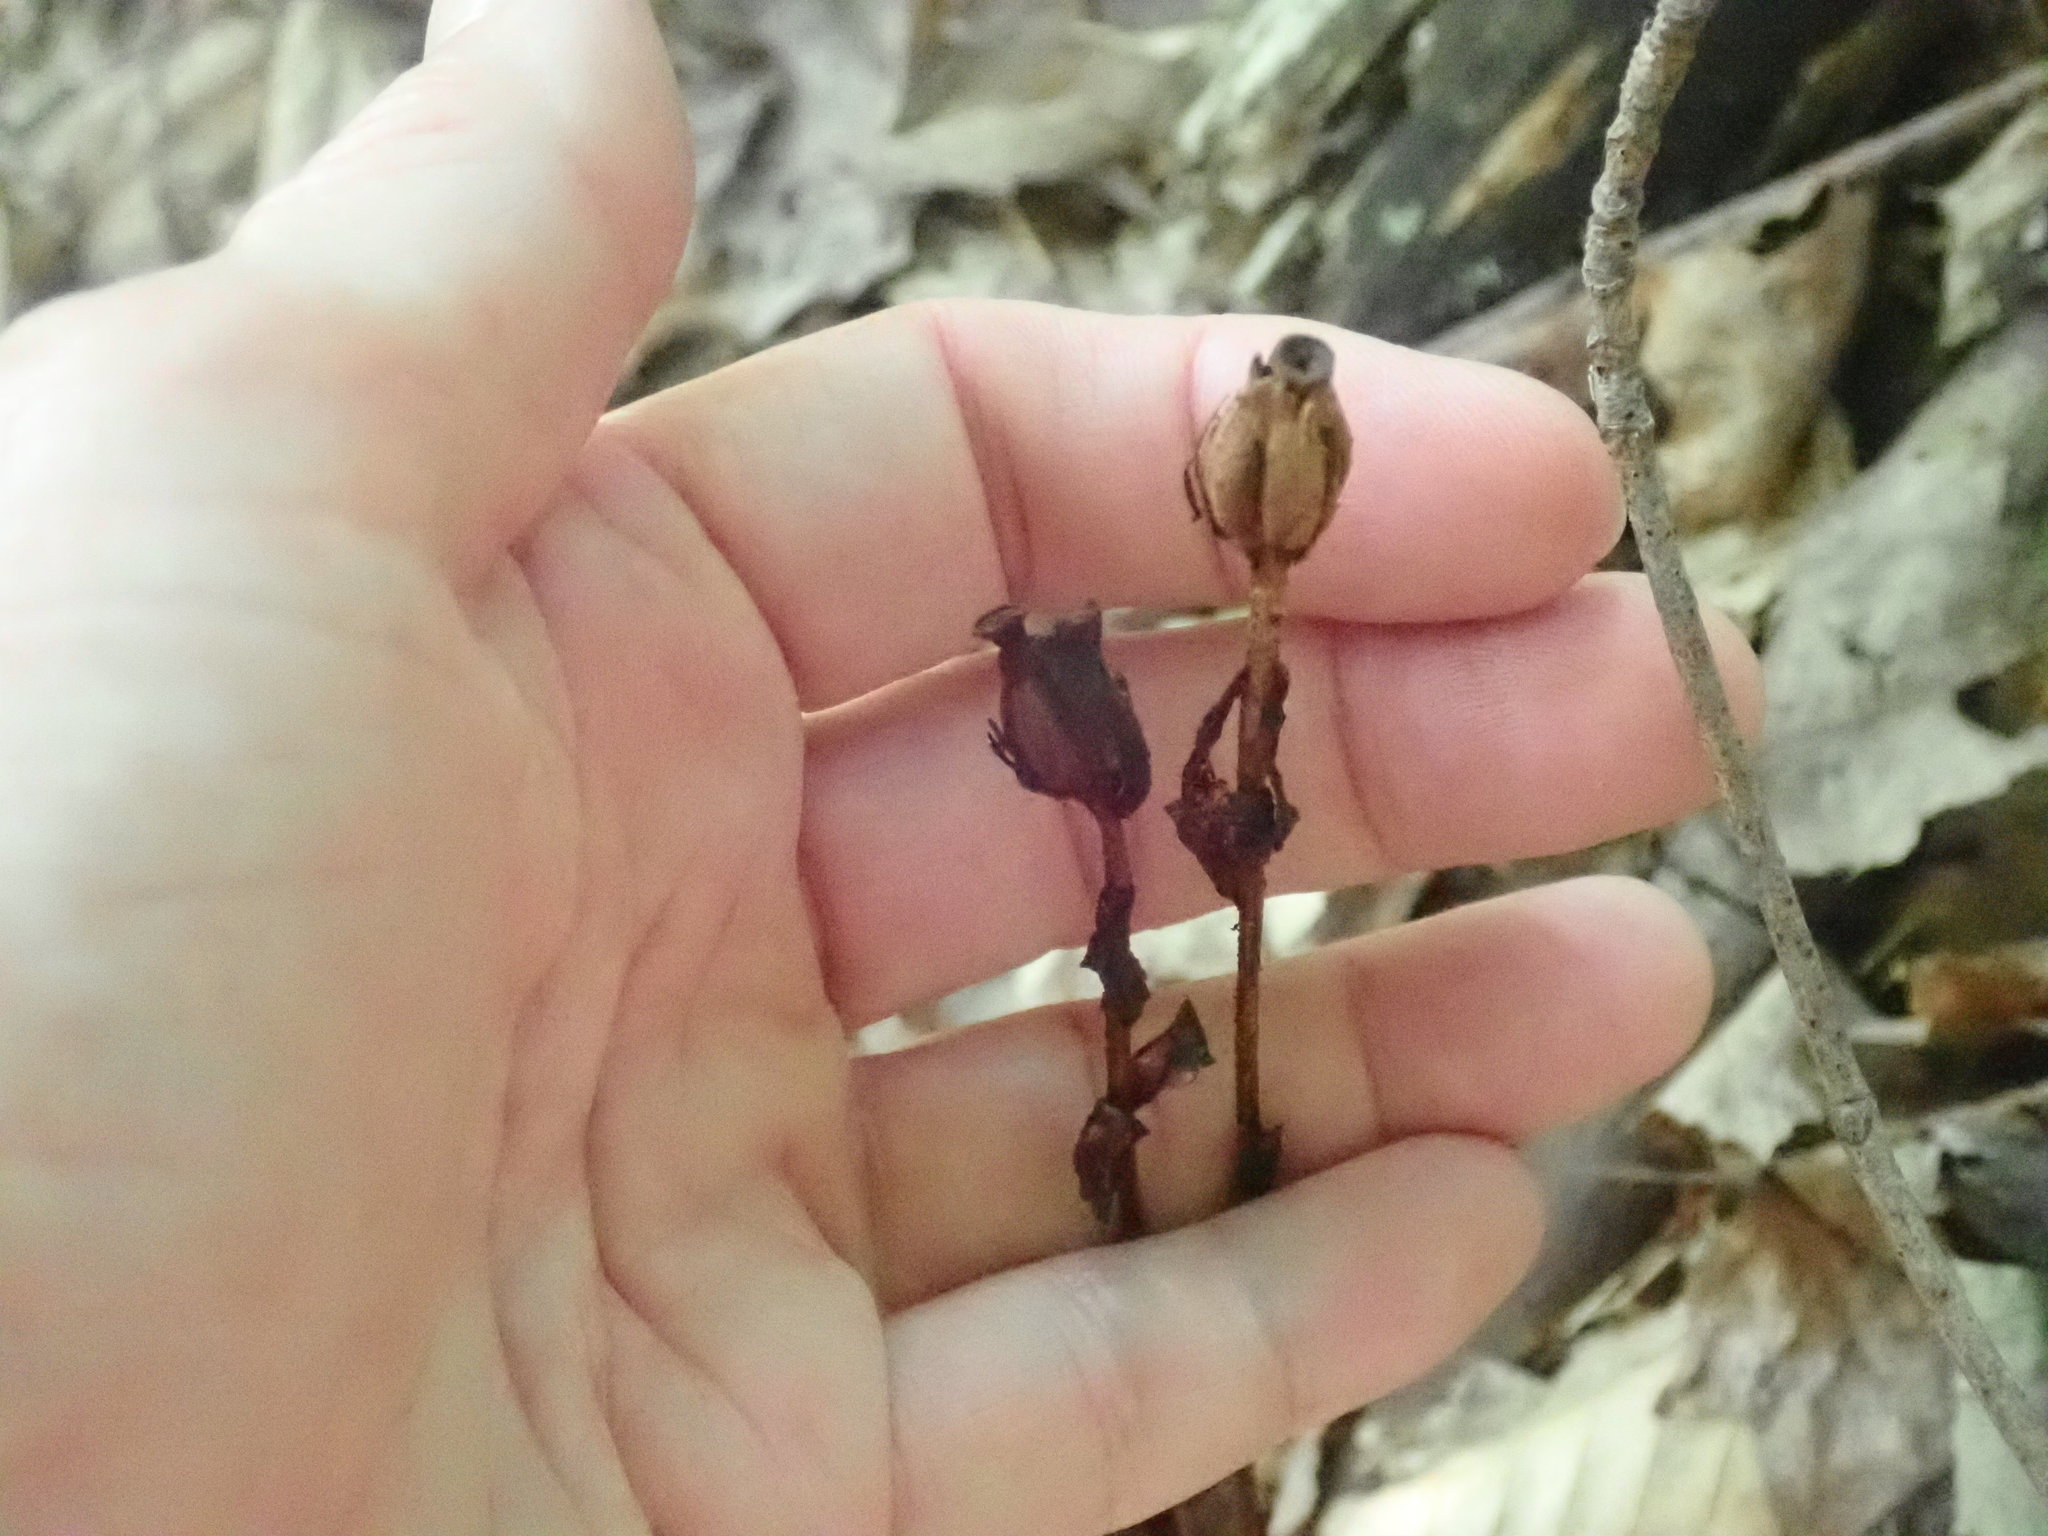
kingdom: Plantae
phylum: Tracheophyta
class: Magnoliopsida
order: Ericales
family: Ericaceae
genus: Monotropa
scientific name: Monotropa uniflora
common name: Convulsion root
